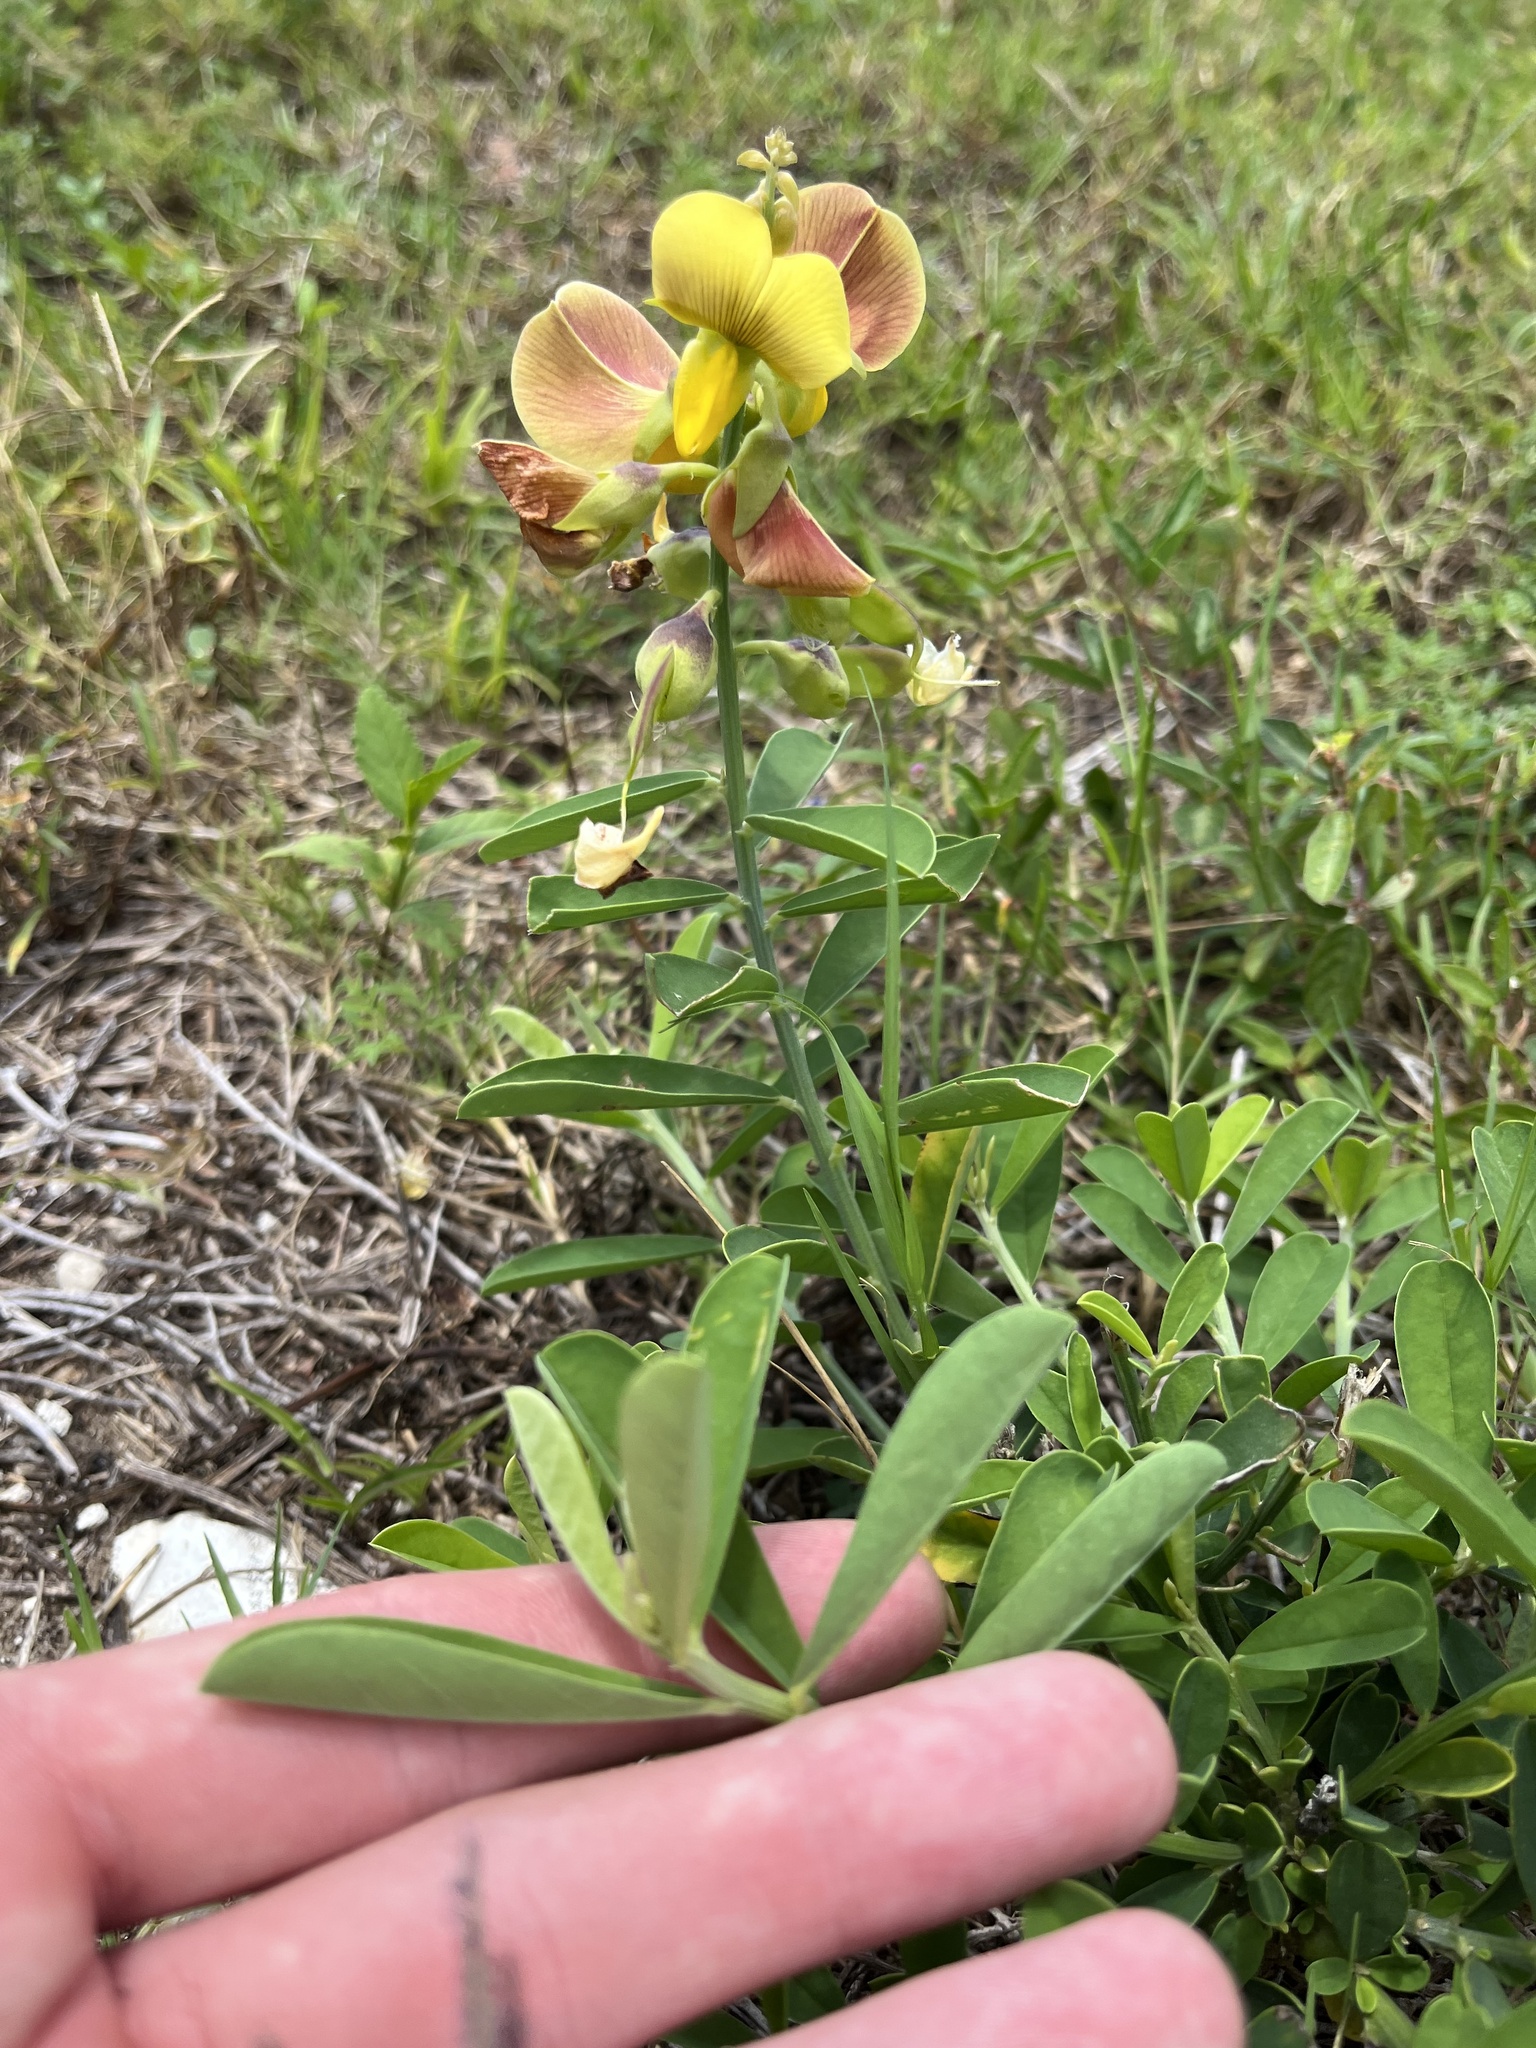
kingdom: Plantae
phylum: Tracheophyta
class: Magnoliopsida
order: Fabales
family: Fabaceae
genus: Crotalaria
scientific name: Crotalaria retusa
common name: Rattleweed
